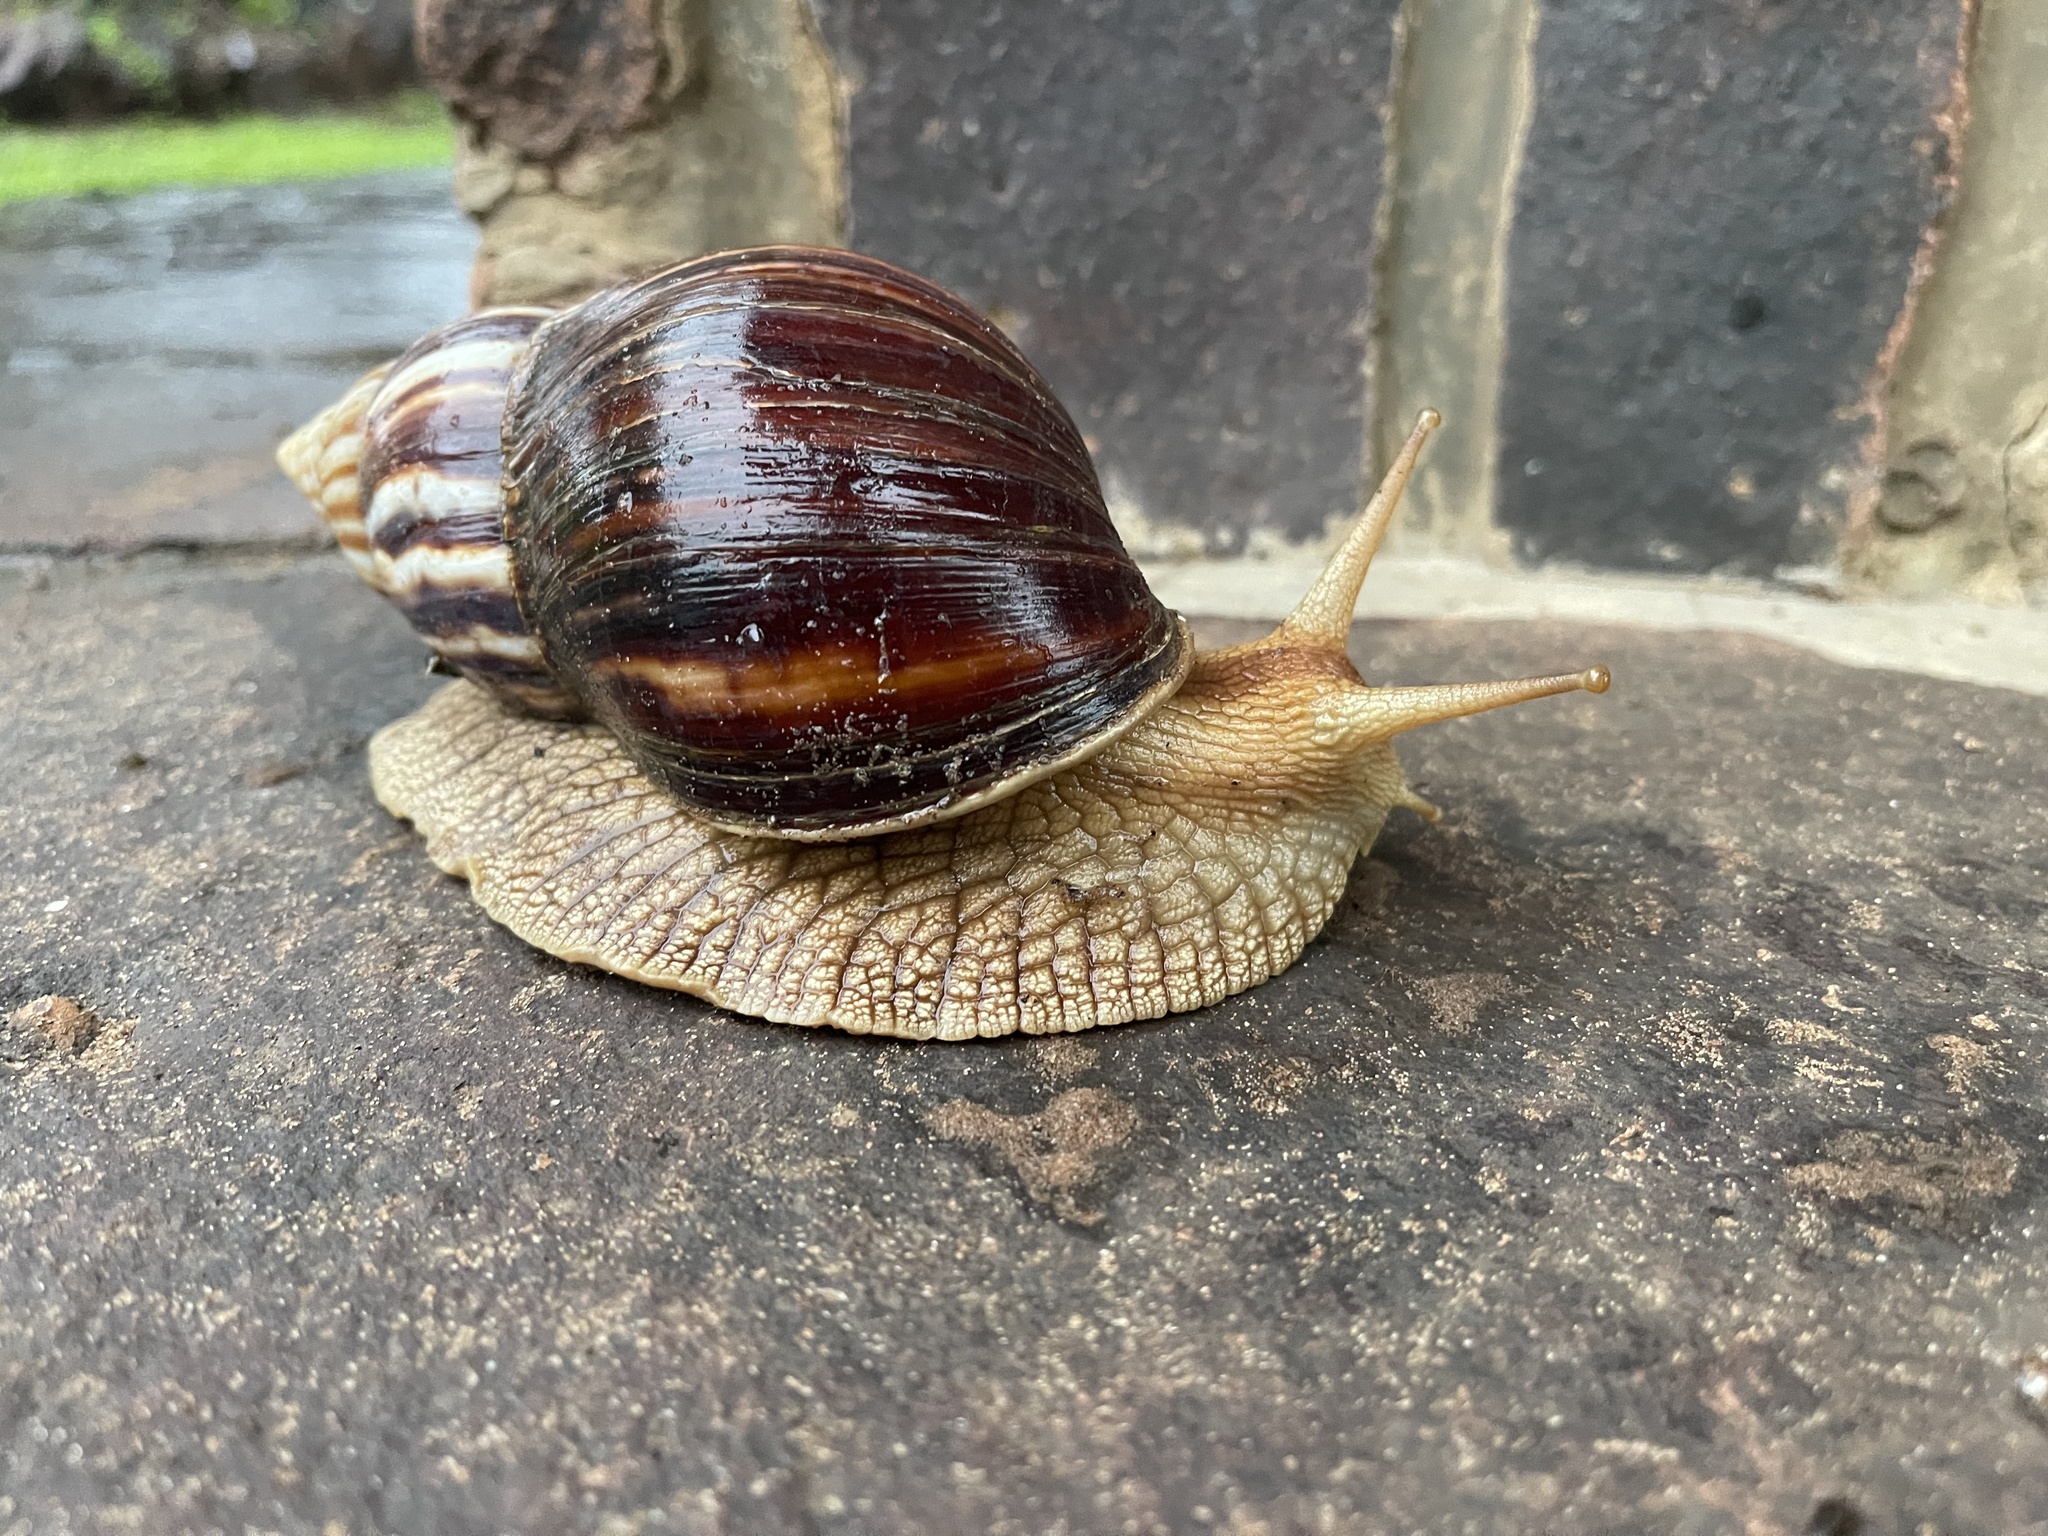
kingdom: Animalia
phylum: Mollusca
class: Gastropoda
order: Stylommatophora
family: Achatinidae
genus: Lissachatina
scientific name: Lissachatina immaculata
